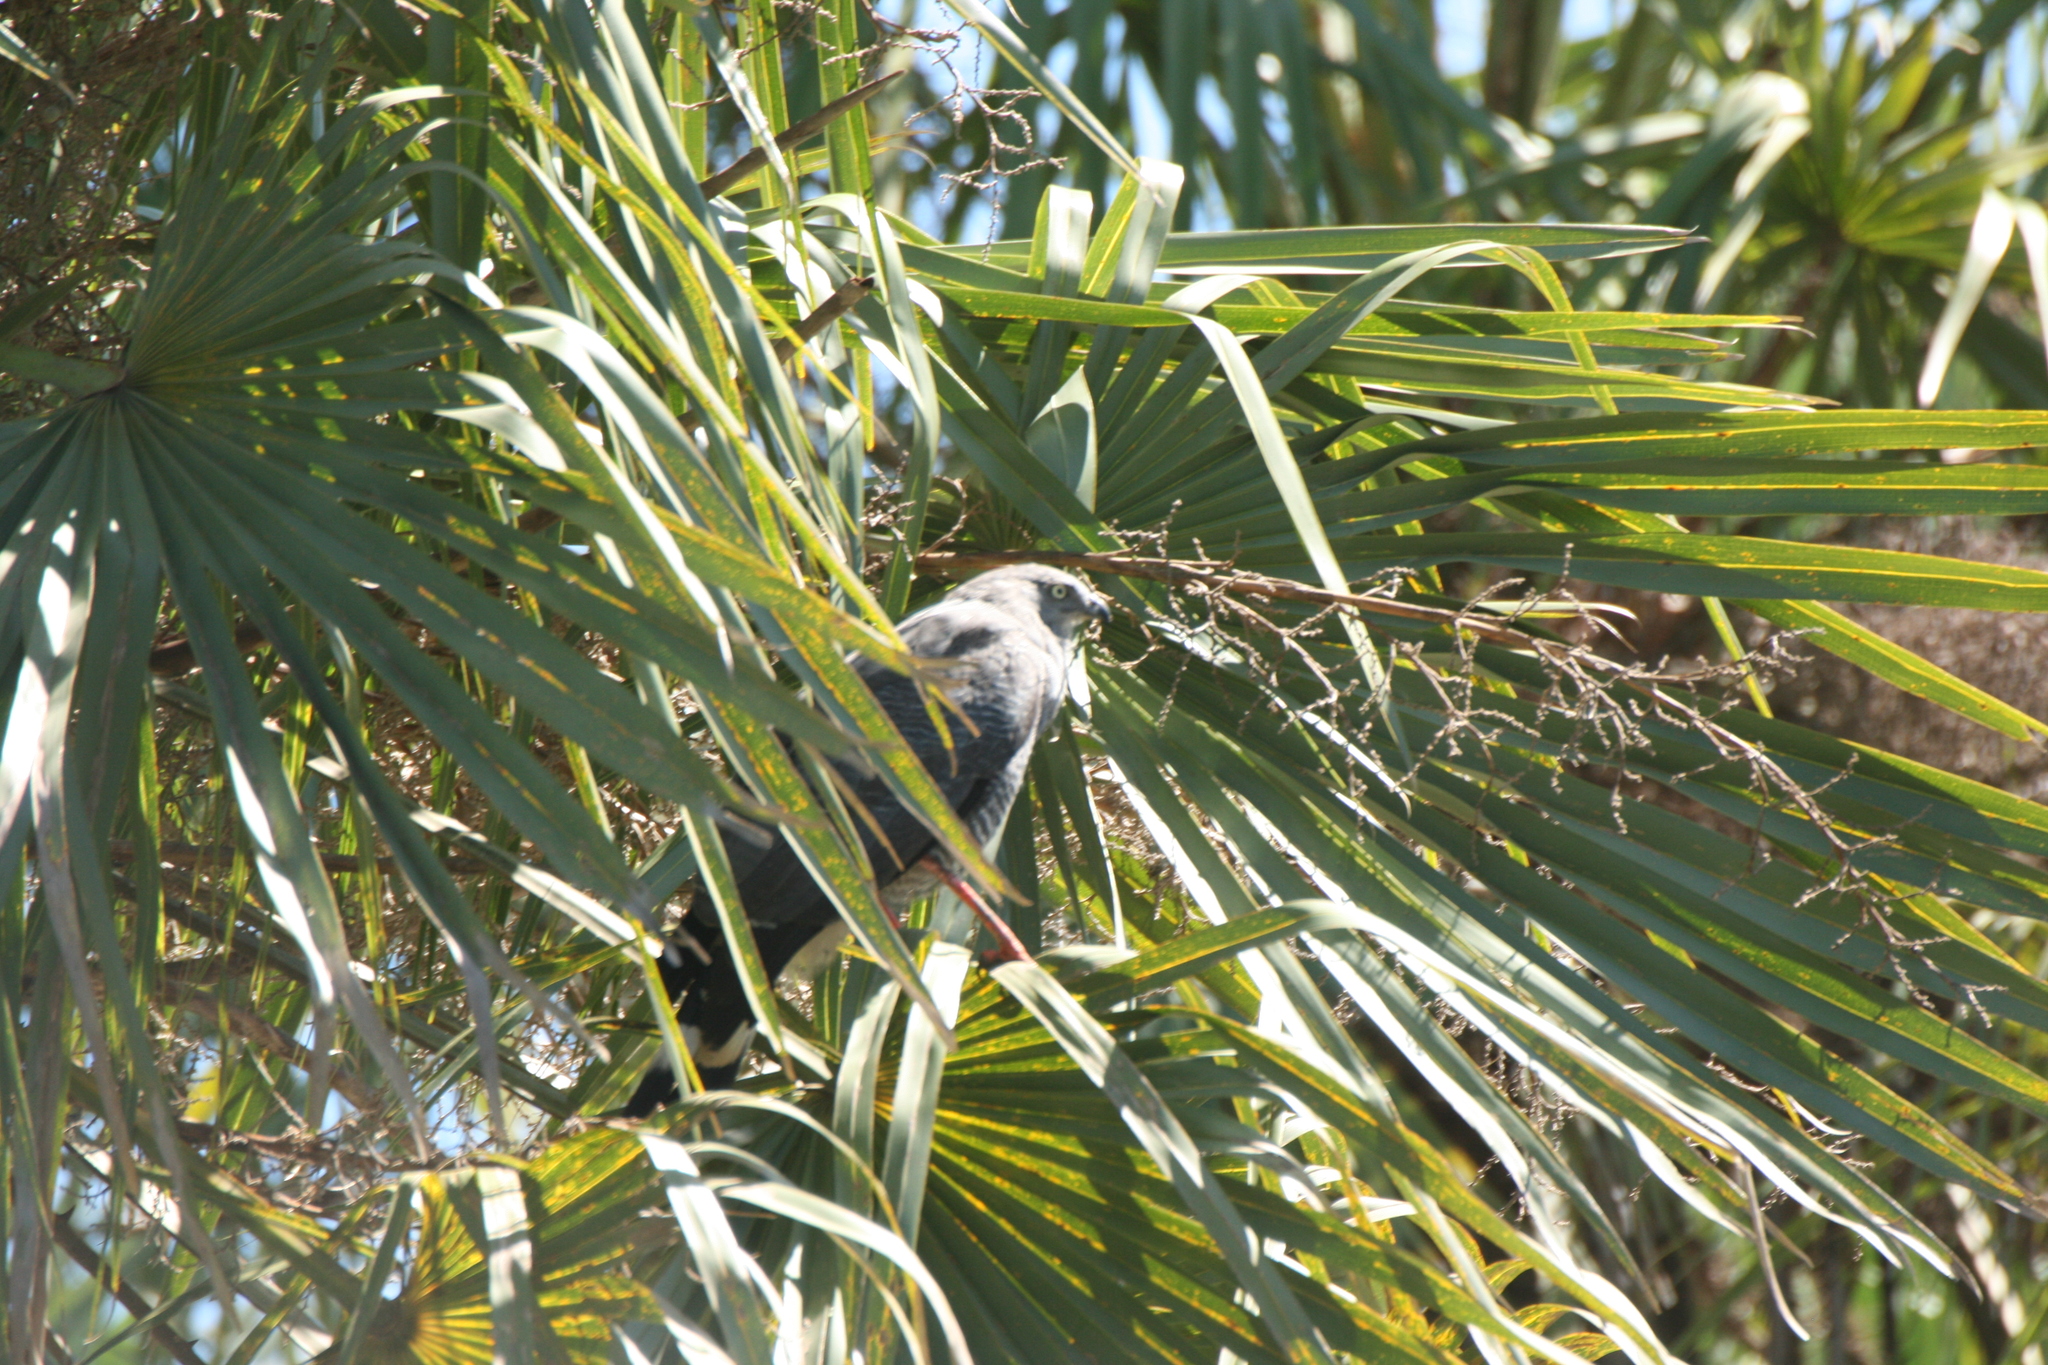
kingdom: Animalia
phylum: Chordata
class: Aves
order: Accipitriformes
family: Accipitridae
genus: Geranospiza
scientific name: Geranospiza caerulescens
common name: Crane hawk
